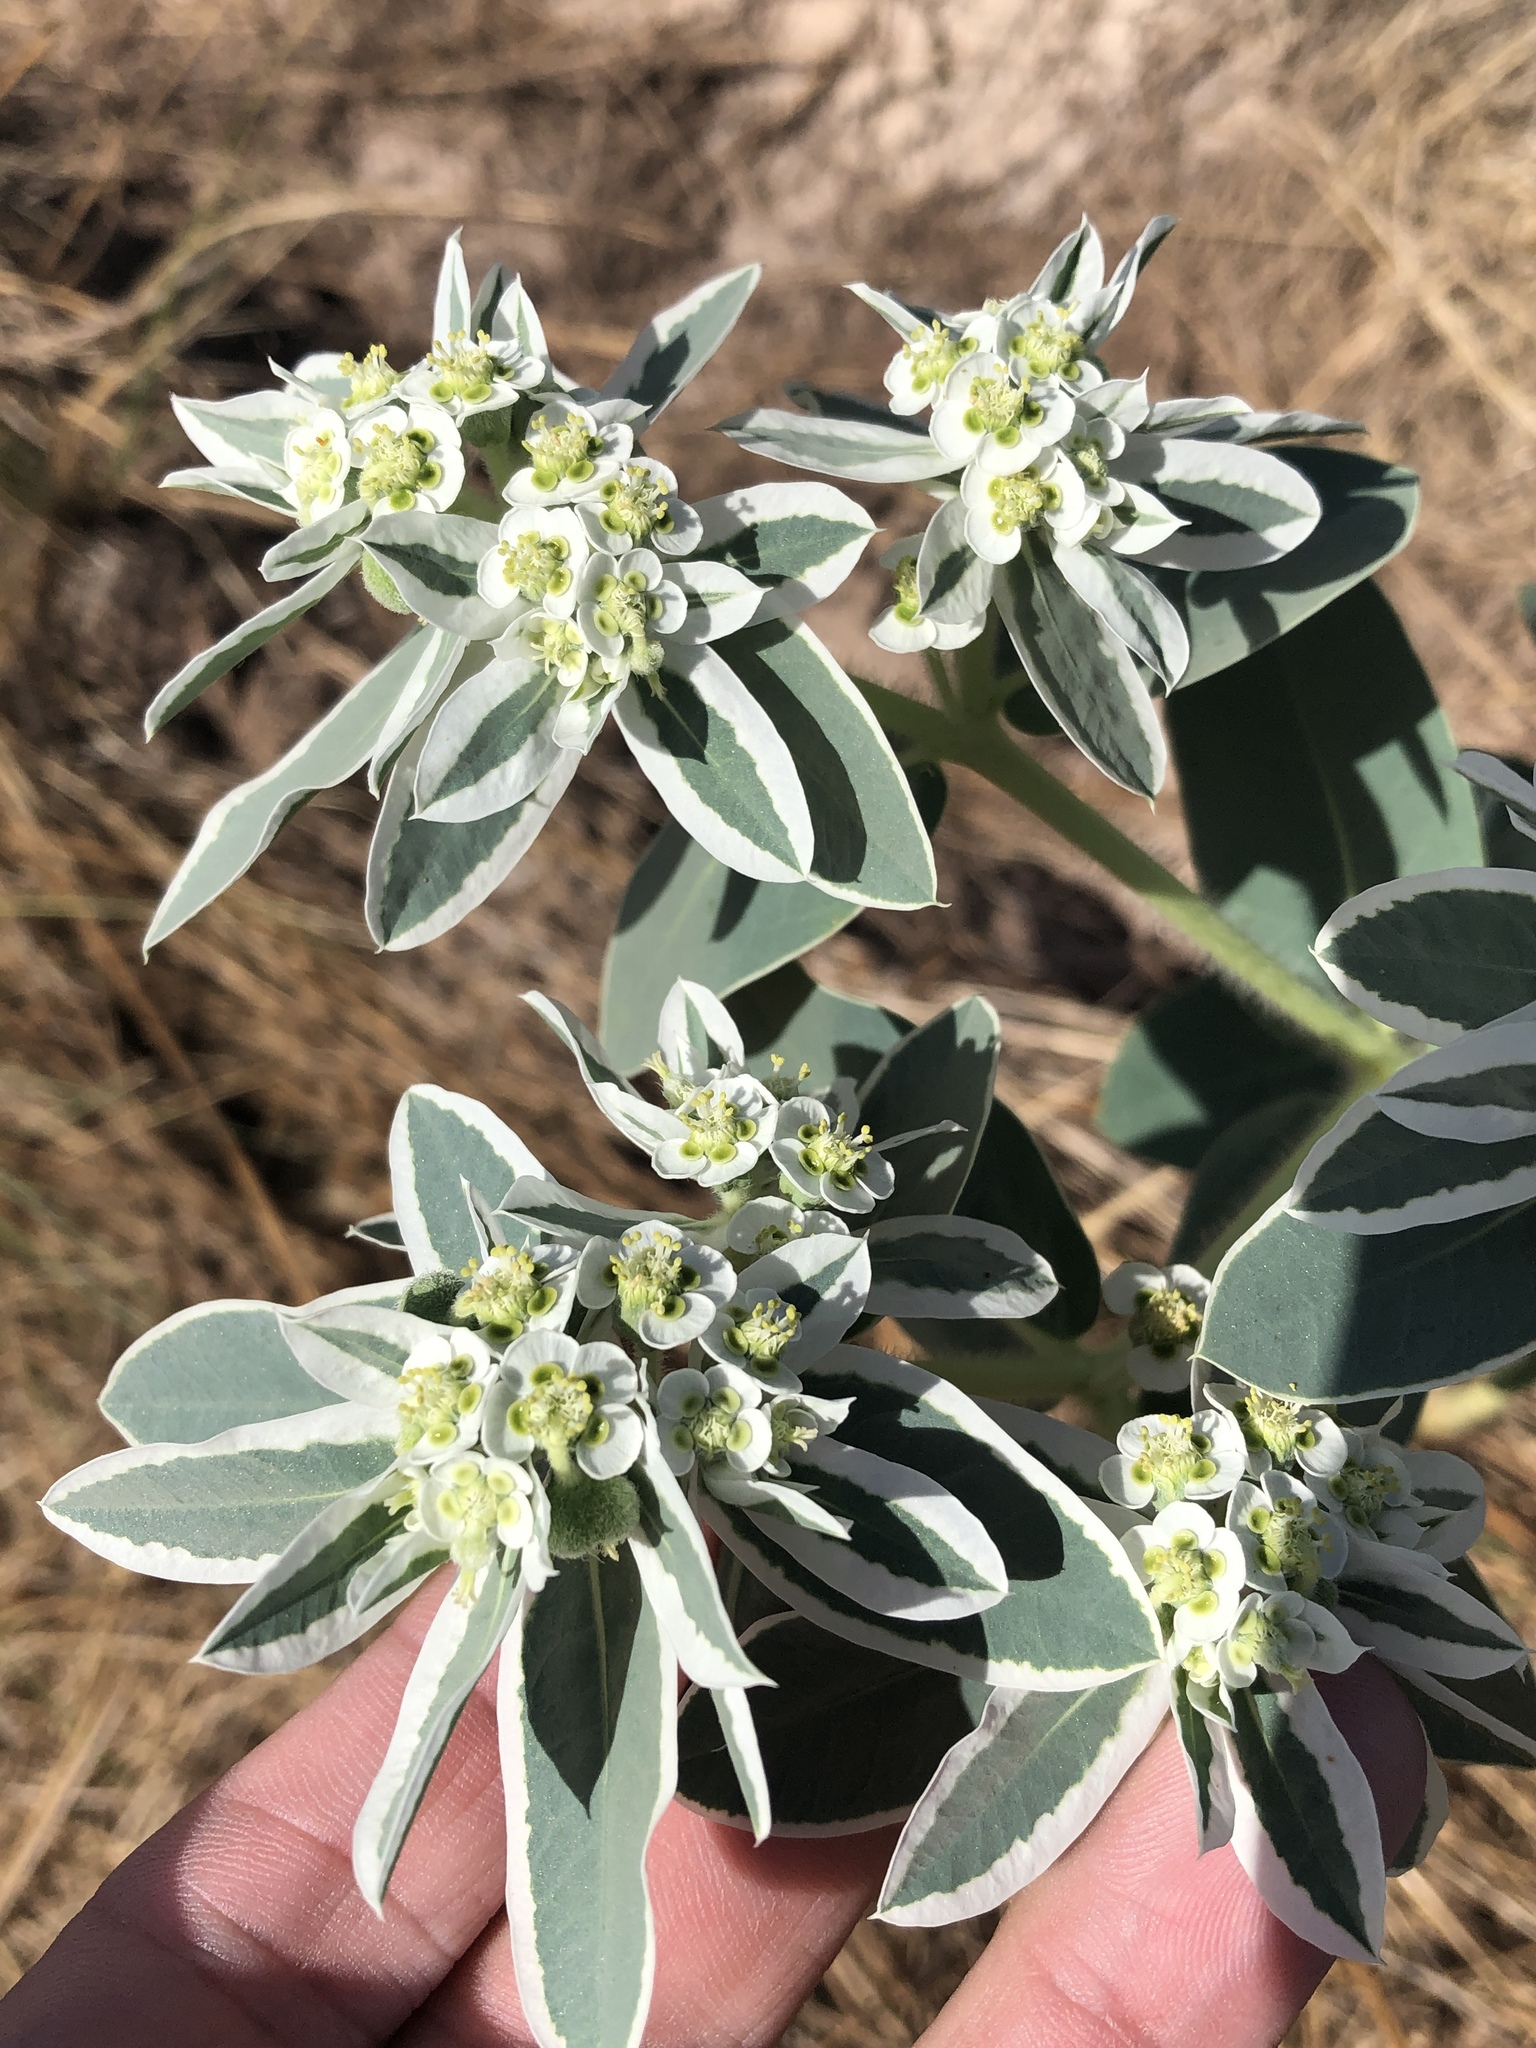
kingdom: Plantae
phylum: Tracheophyta
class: Magnoliopsida
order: Malpighiales
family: Euphorbiaceae
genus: Euphorbia
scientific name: Euphorbia marginata
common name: Ghostweed
